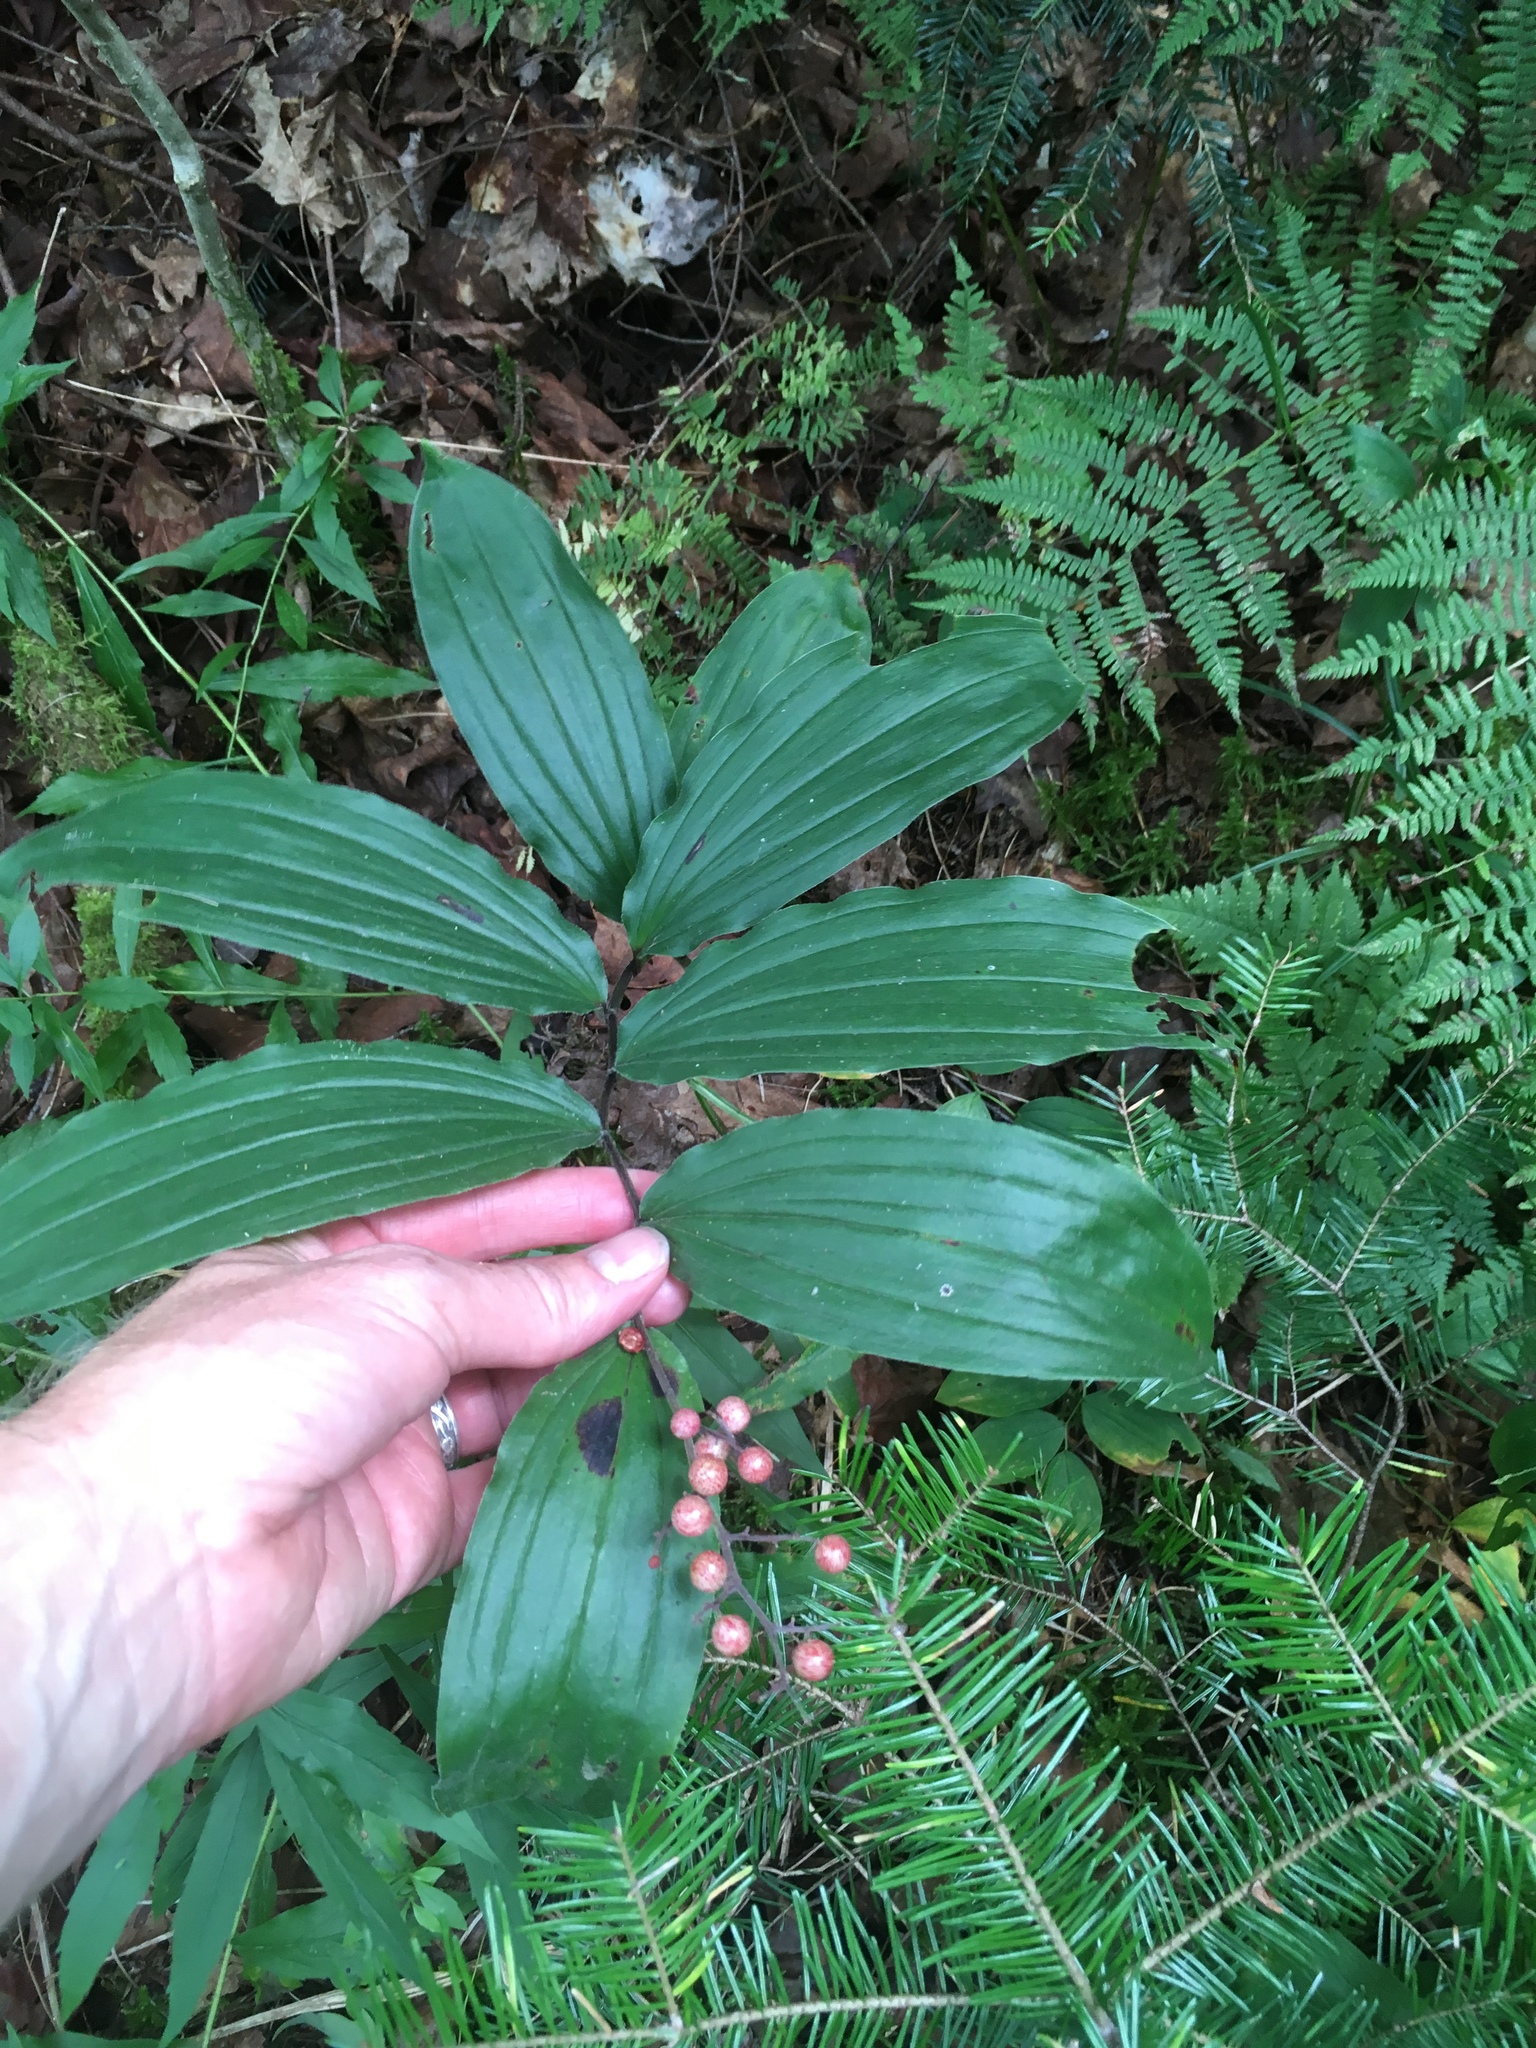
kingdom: Plantae
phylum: Tracheophyta
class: Liliopsida
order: Asparagales
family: Asparagaceae
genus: Maianthemum
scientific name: Maianthemum racemosum
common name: False spikenard
